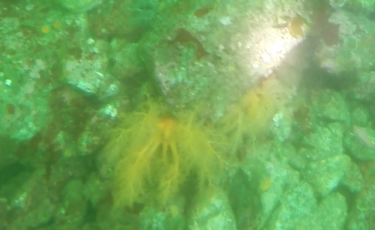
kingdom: Animalia
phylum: Echinodermata
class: Holothuroidea
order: Dendrochirotida
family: Cucumariidae
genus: Cucumaria
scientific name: Cucumaria miniata
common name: Orange sea cucumber
